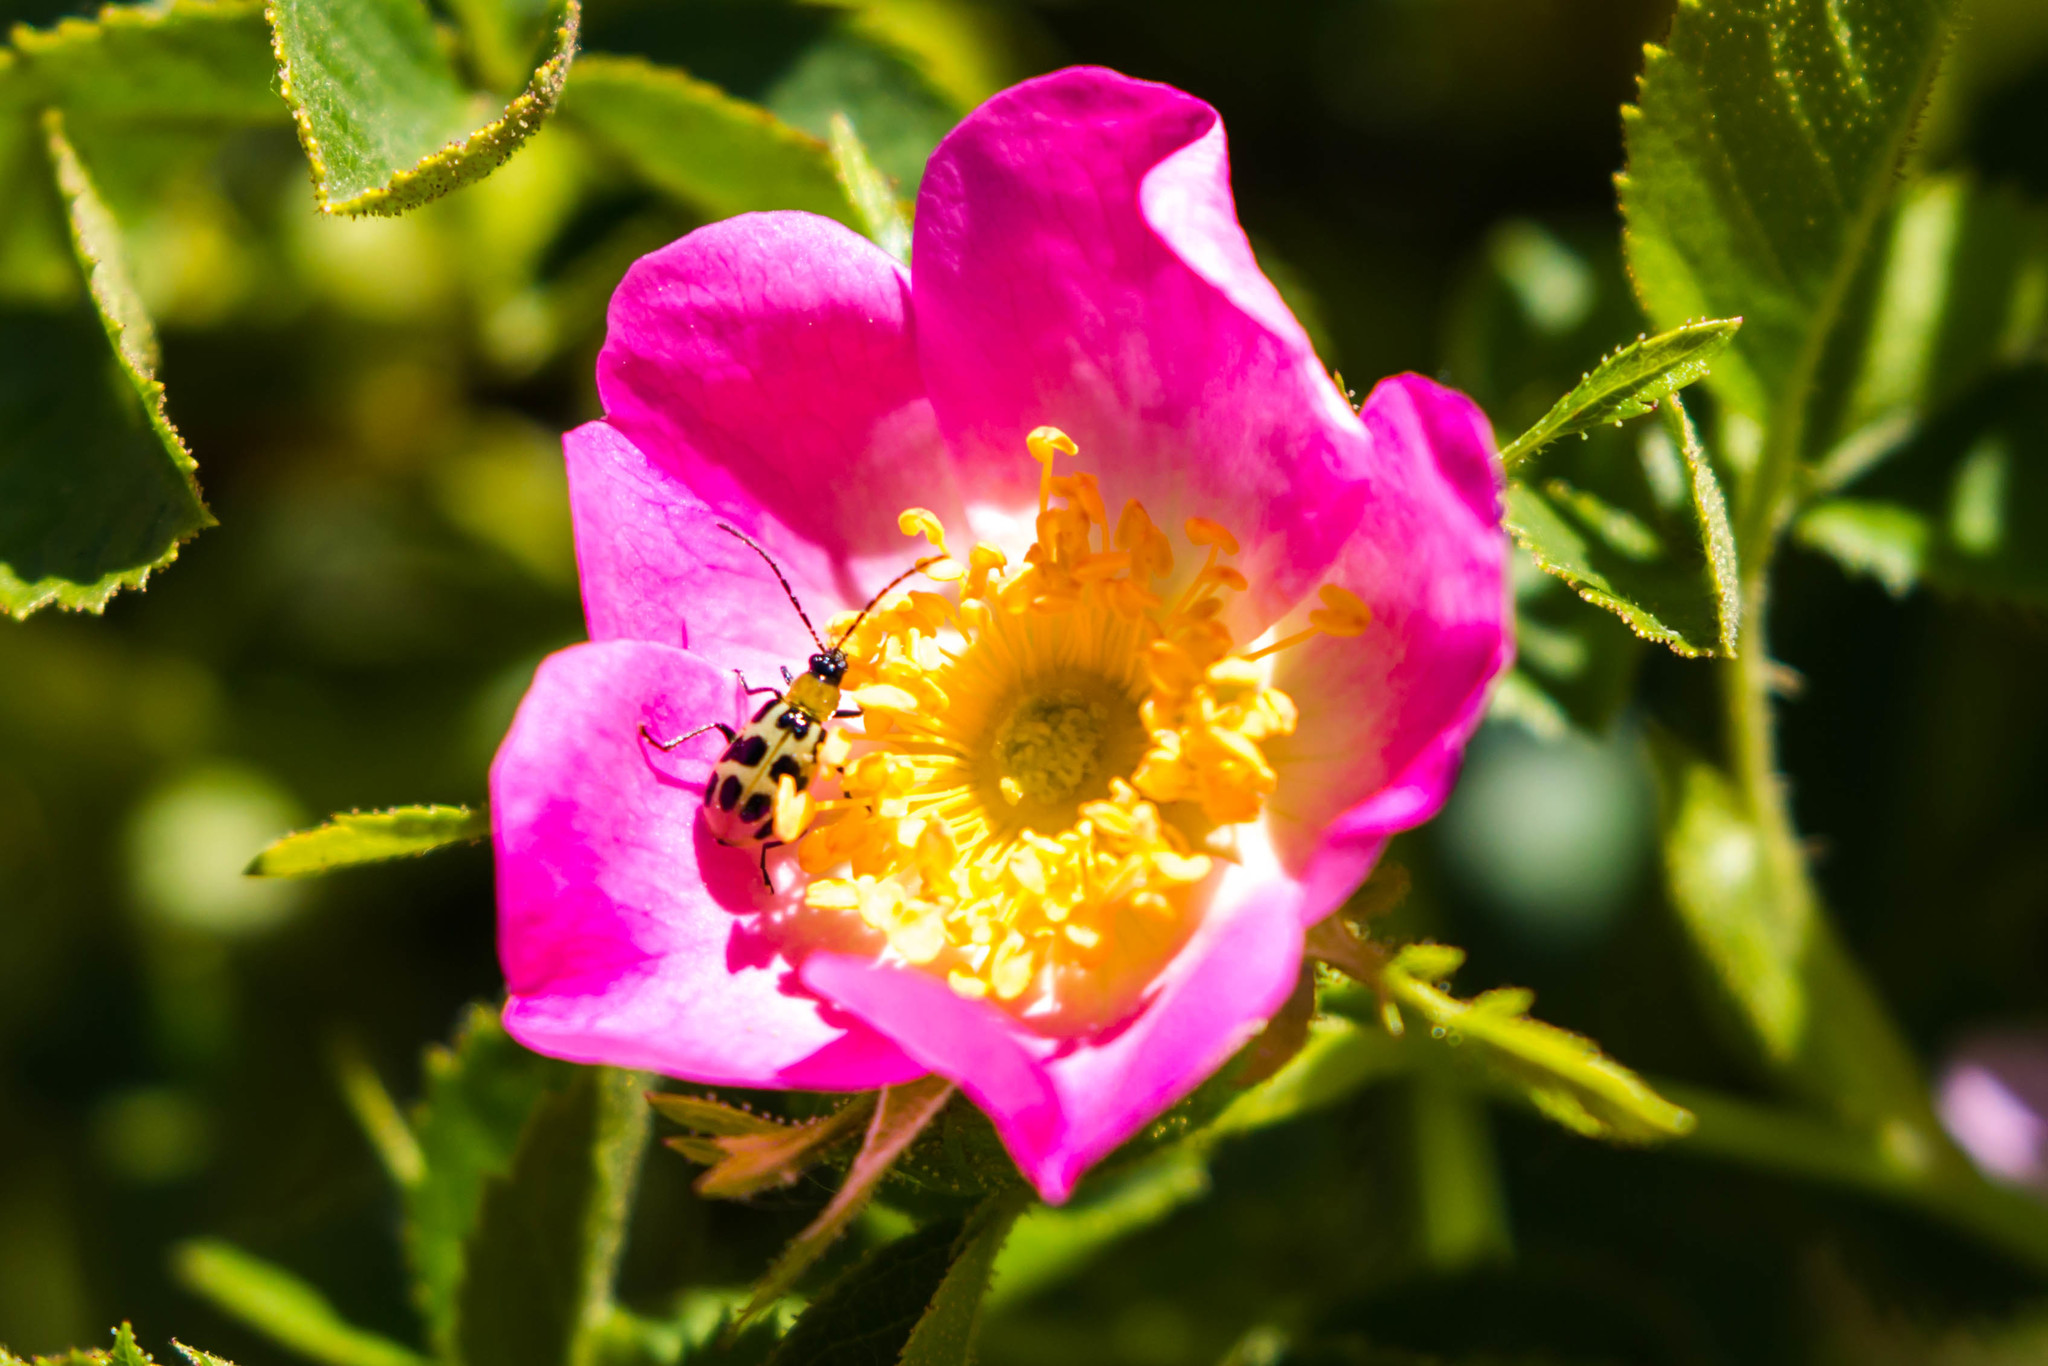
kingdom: Animalia
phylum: Arthropoda
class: Insecta
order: Coleoptera
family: Chrysomelidae
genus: Diabrotica
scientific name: Diabrotica undecimpunctata
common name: Spotted cucumber beetle
